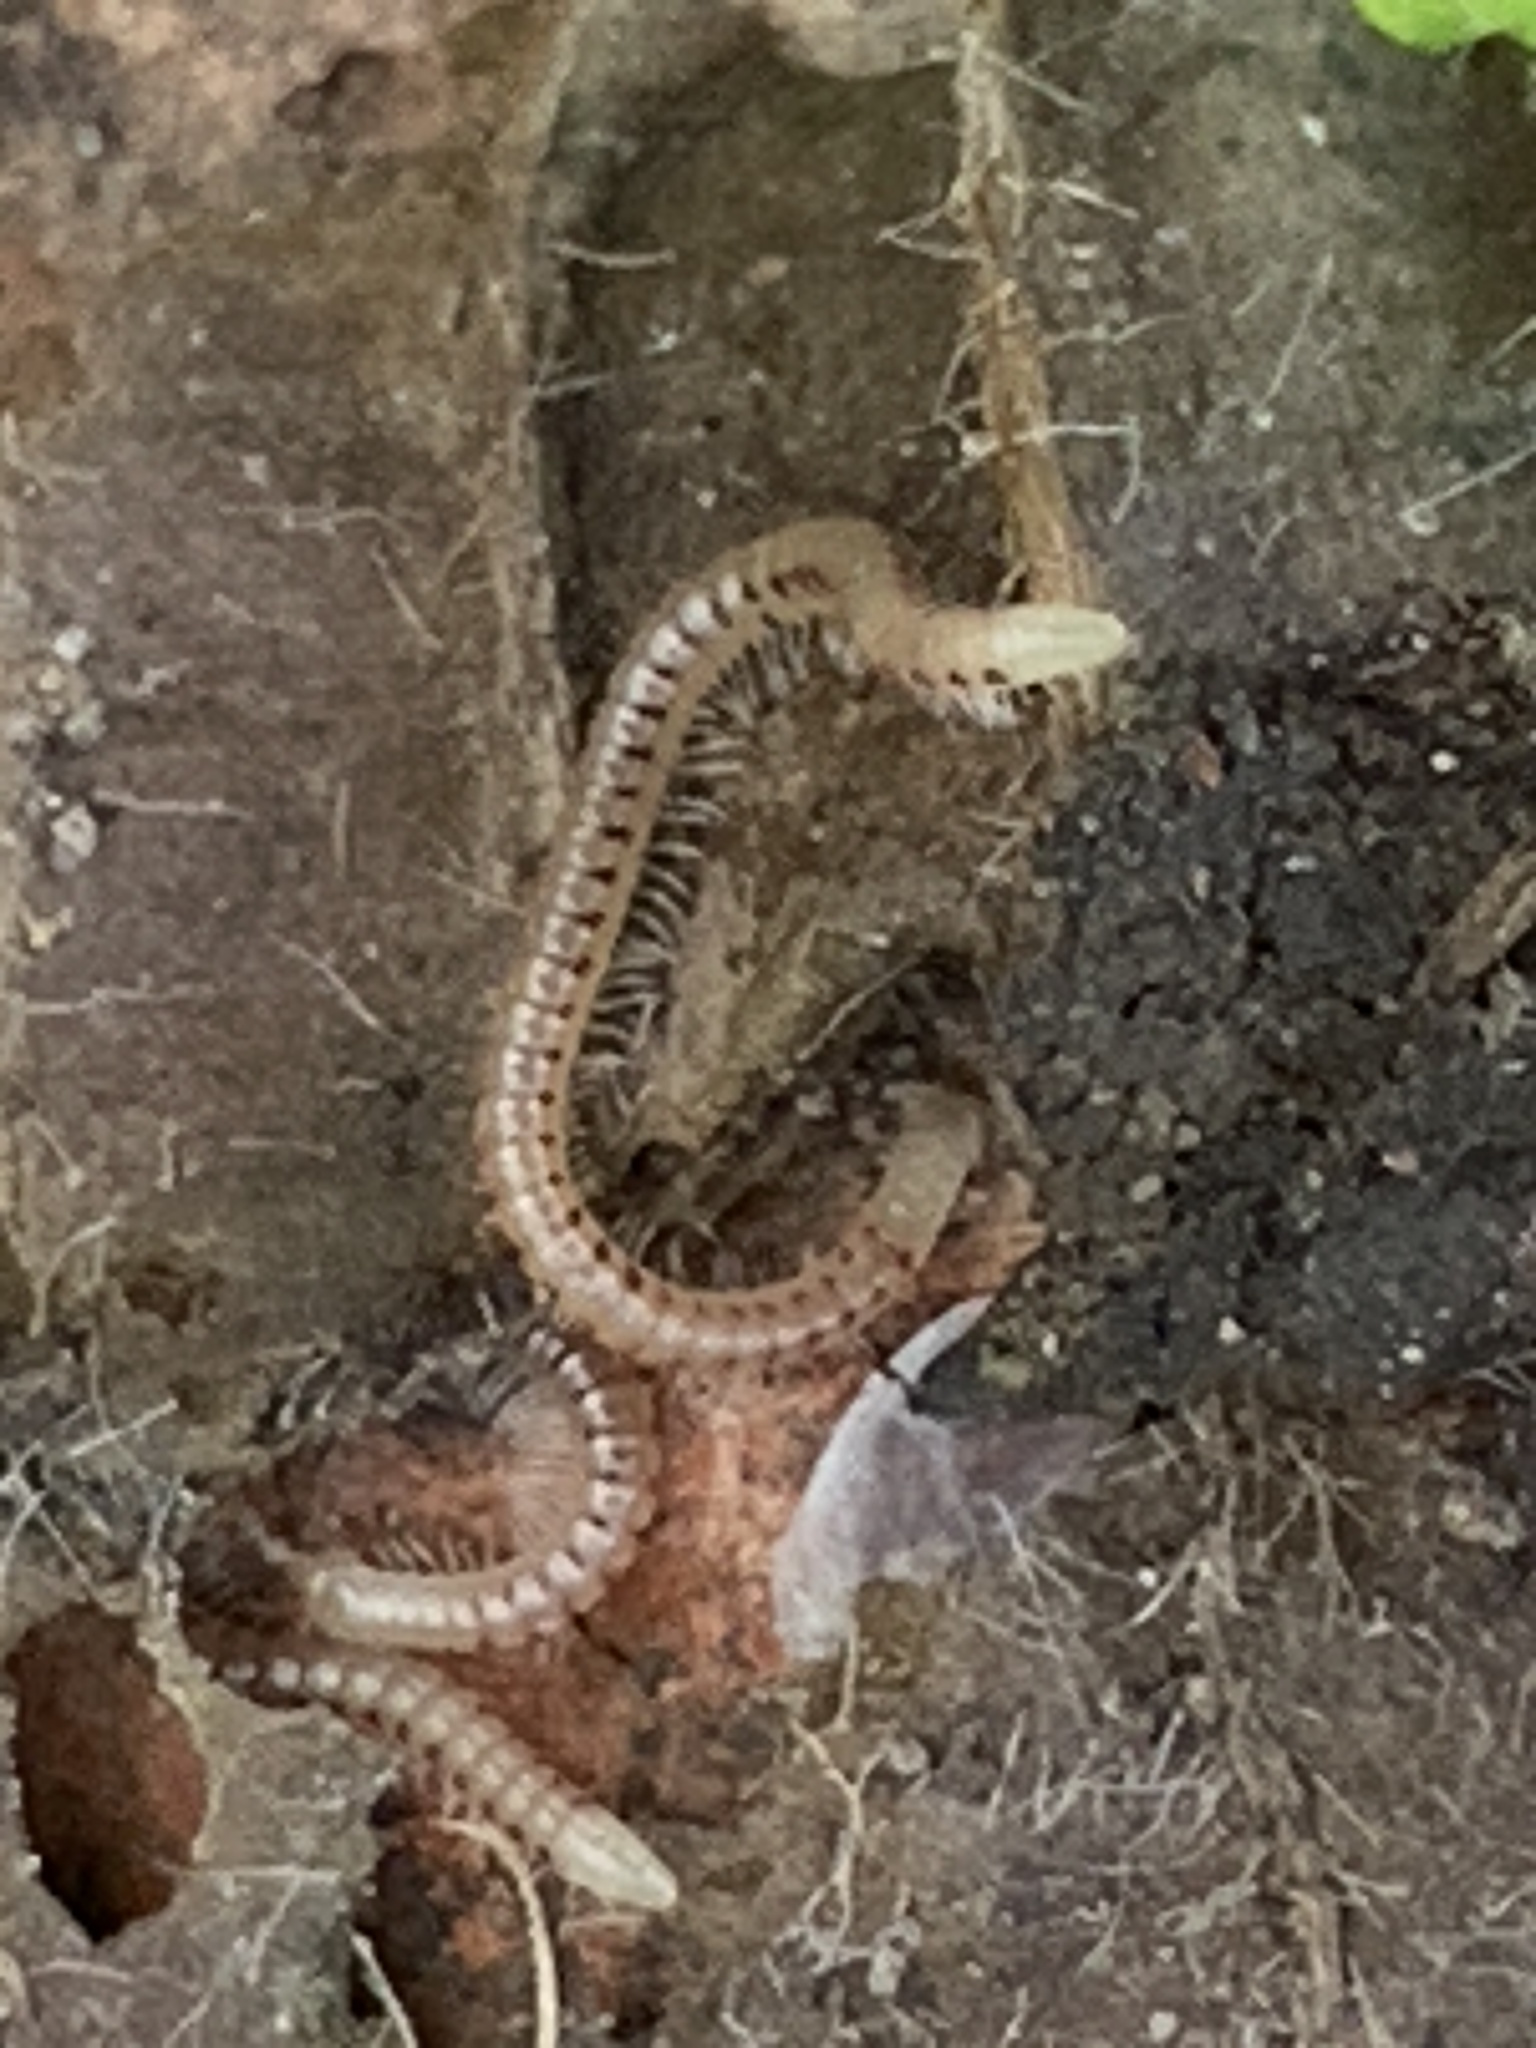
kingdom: Animalia
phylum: Arthropoda
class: Diplopoda
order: Julida
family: Blaniulidae
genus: Blaniulus
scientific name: Blaniulus guttulatus
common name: Spotted snake millipede
